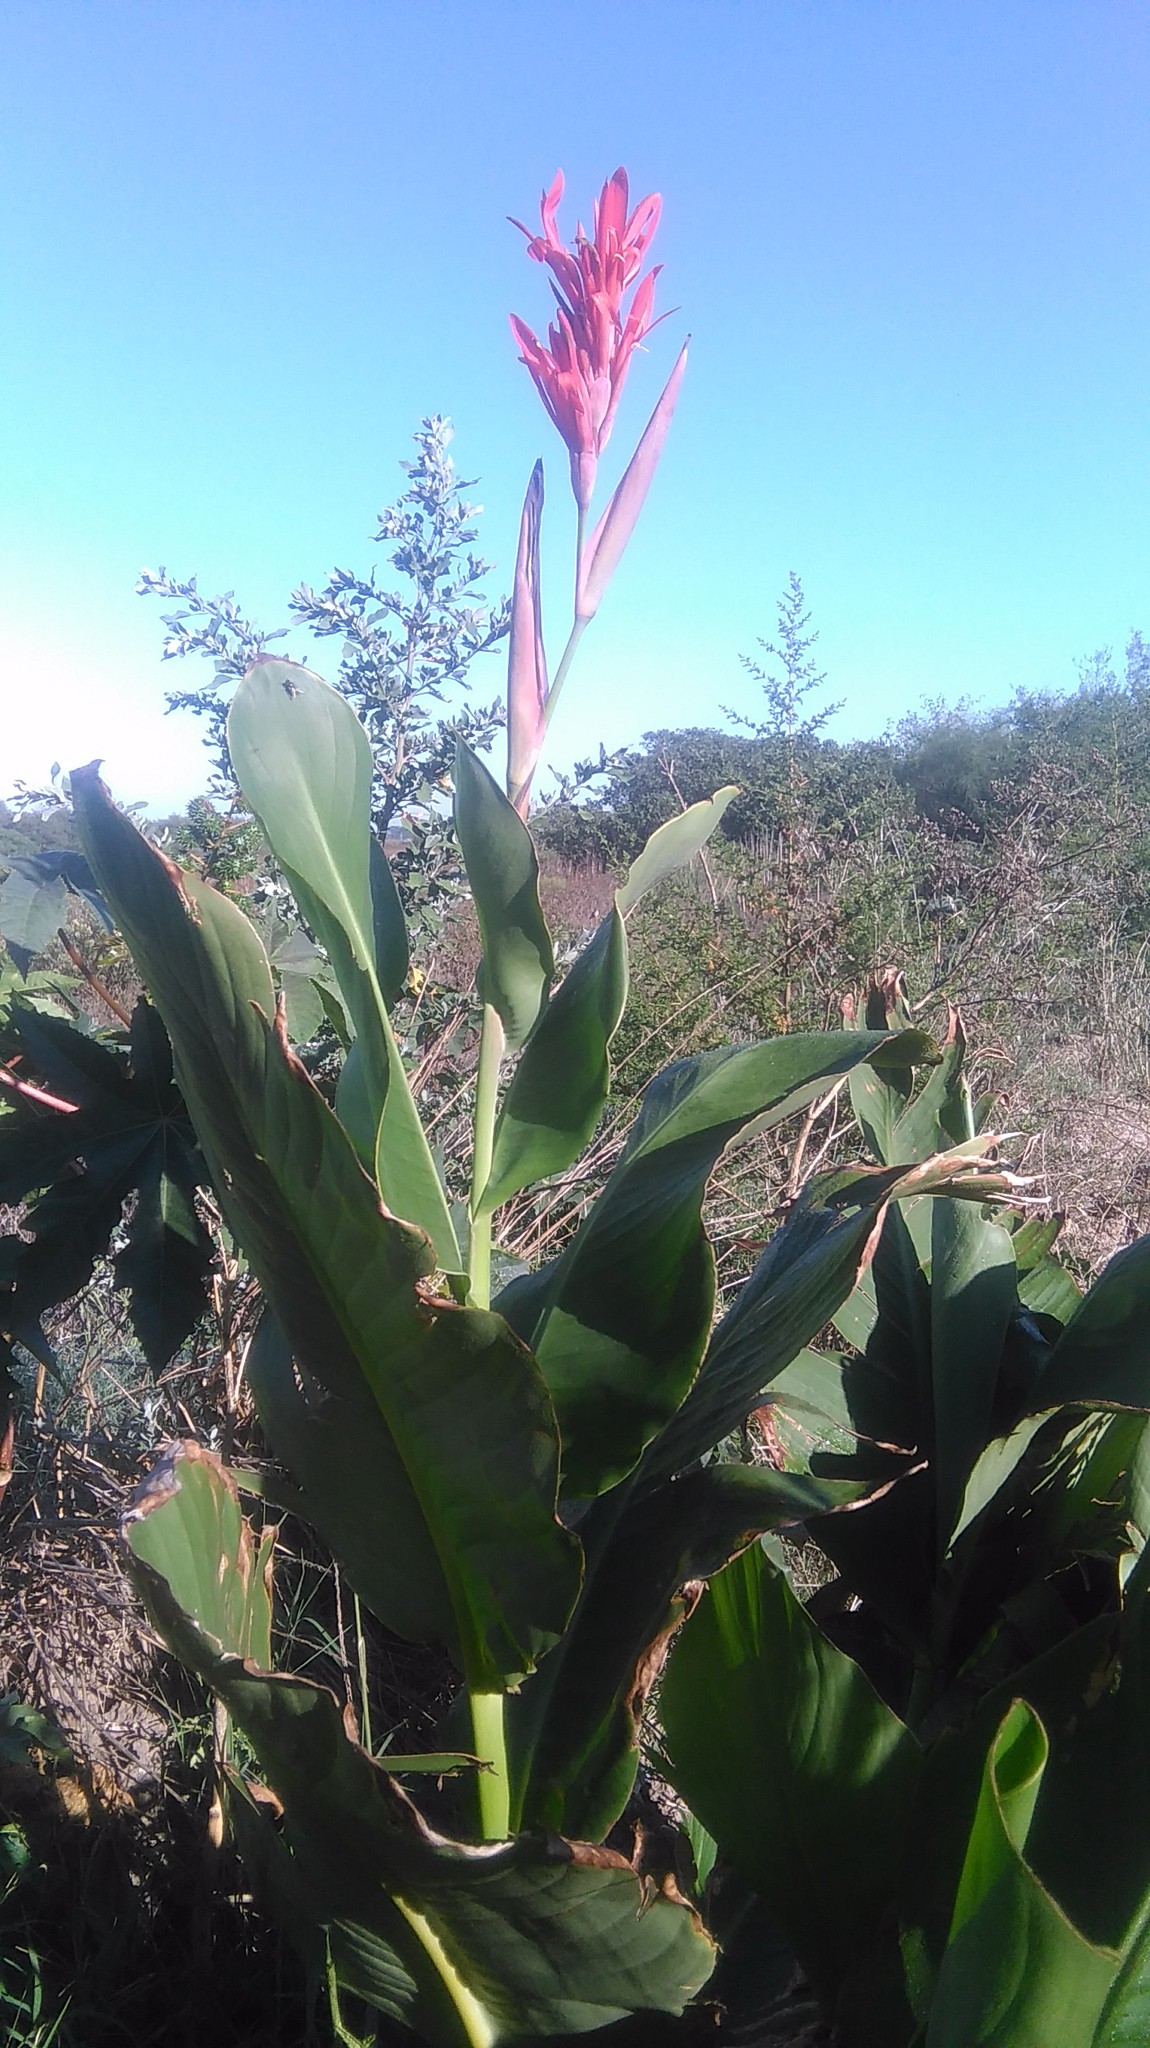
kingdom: Plantae
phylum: Tracheophyta
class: Liliopsida
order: Zingiberales
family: Cannaceae
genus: Canna
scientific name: Canna indica
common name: Indian shot
